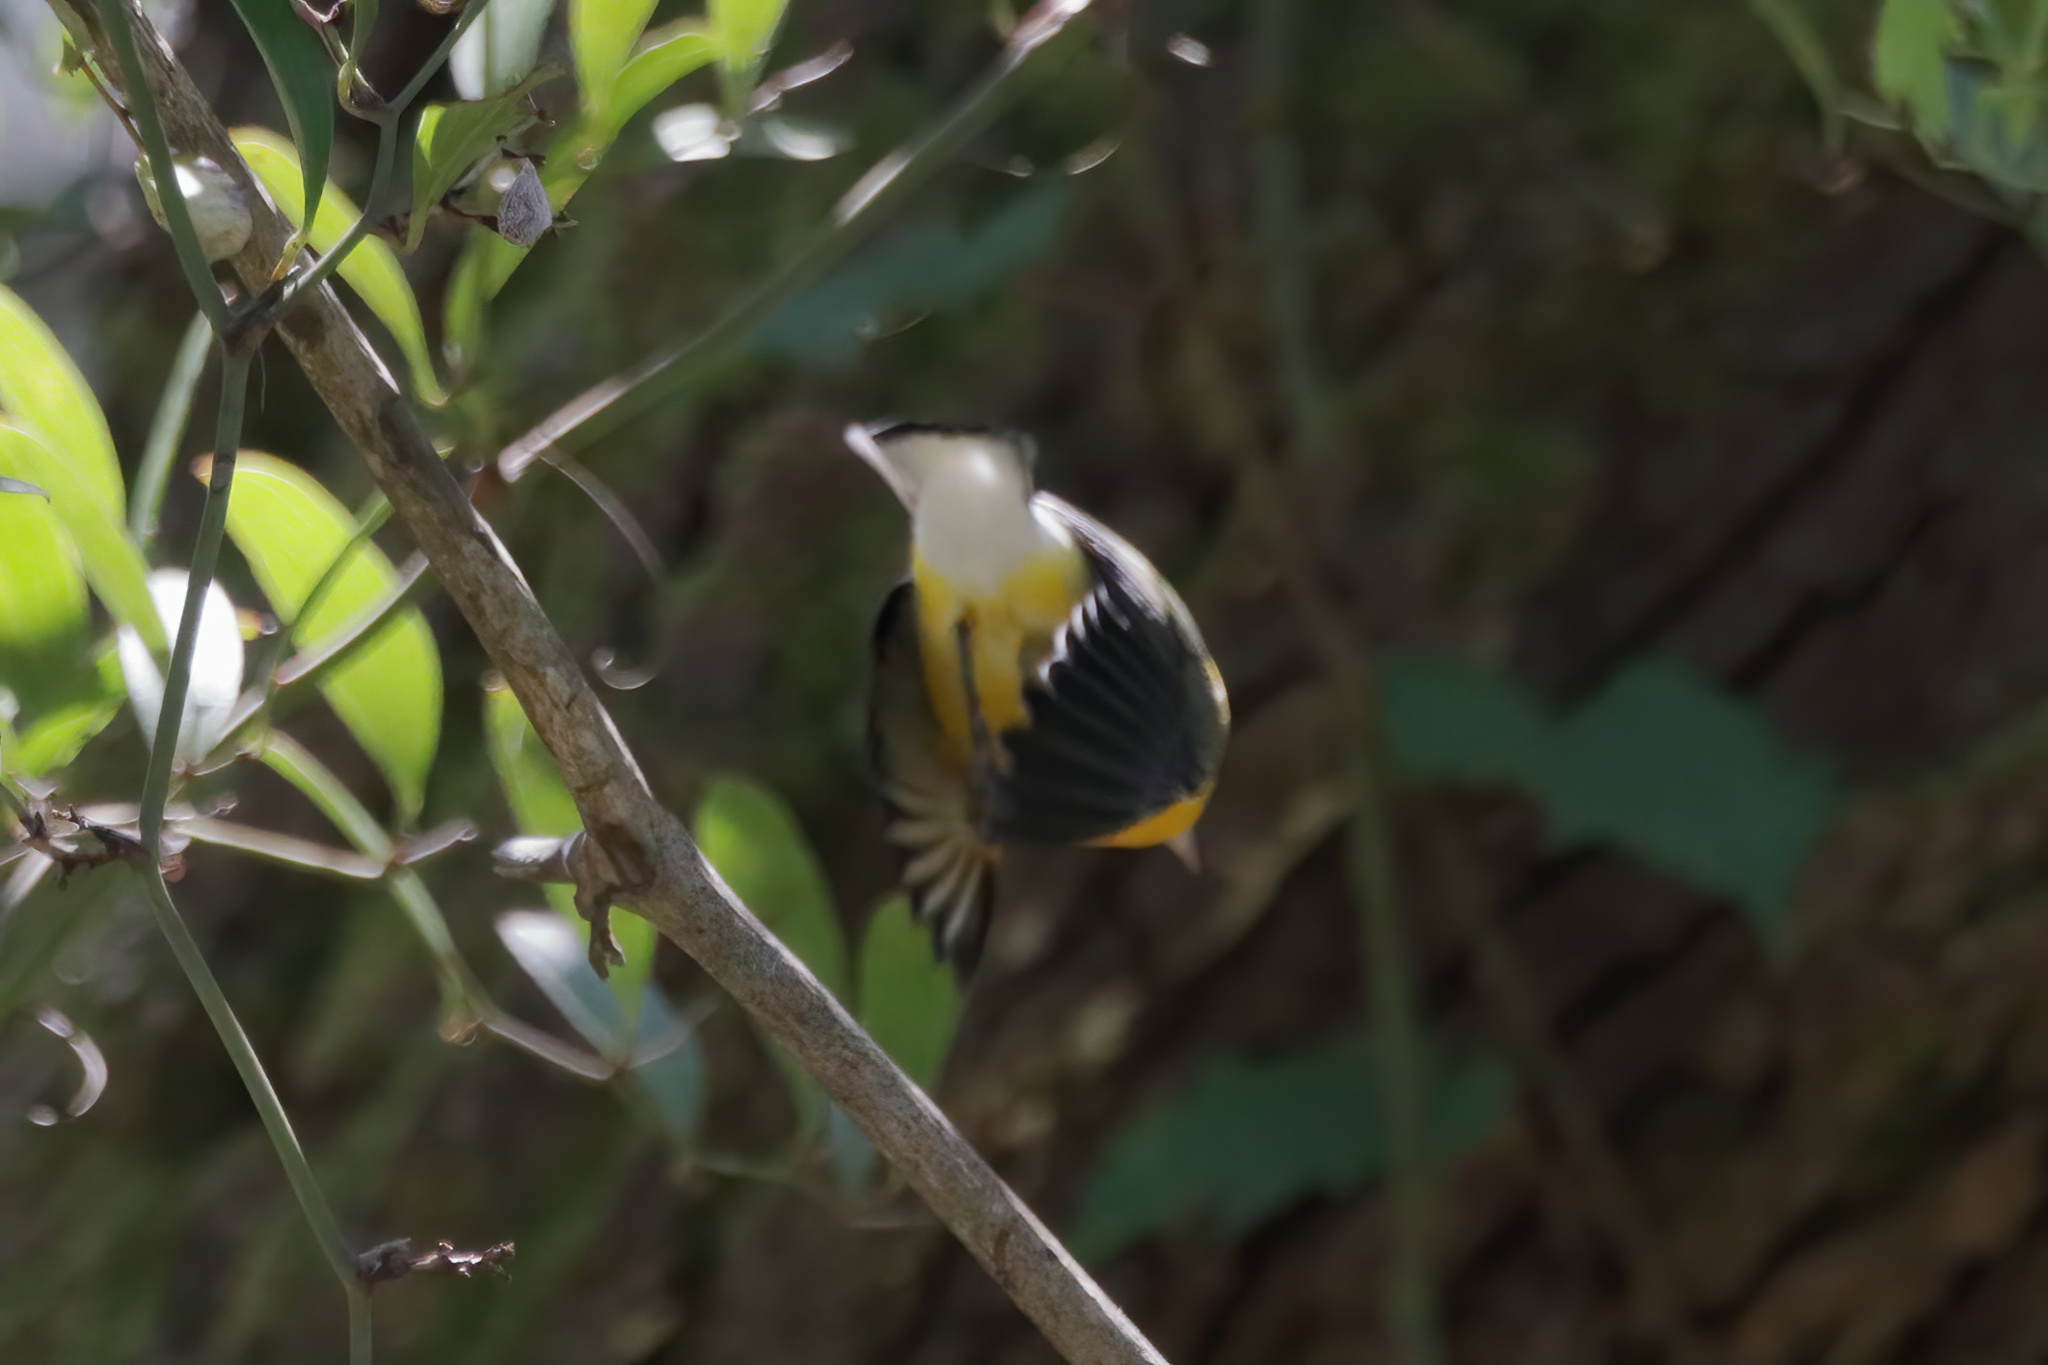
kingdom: Animalia
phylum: Chordata
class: Aves
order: Passeriformes
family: Parulidae
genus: Protonotaria
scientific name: Protonotaria citrea
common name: Prothonotary warbler
